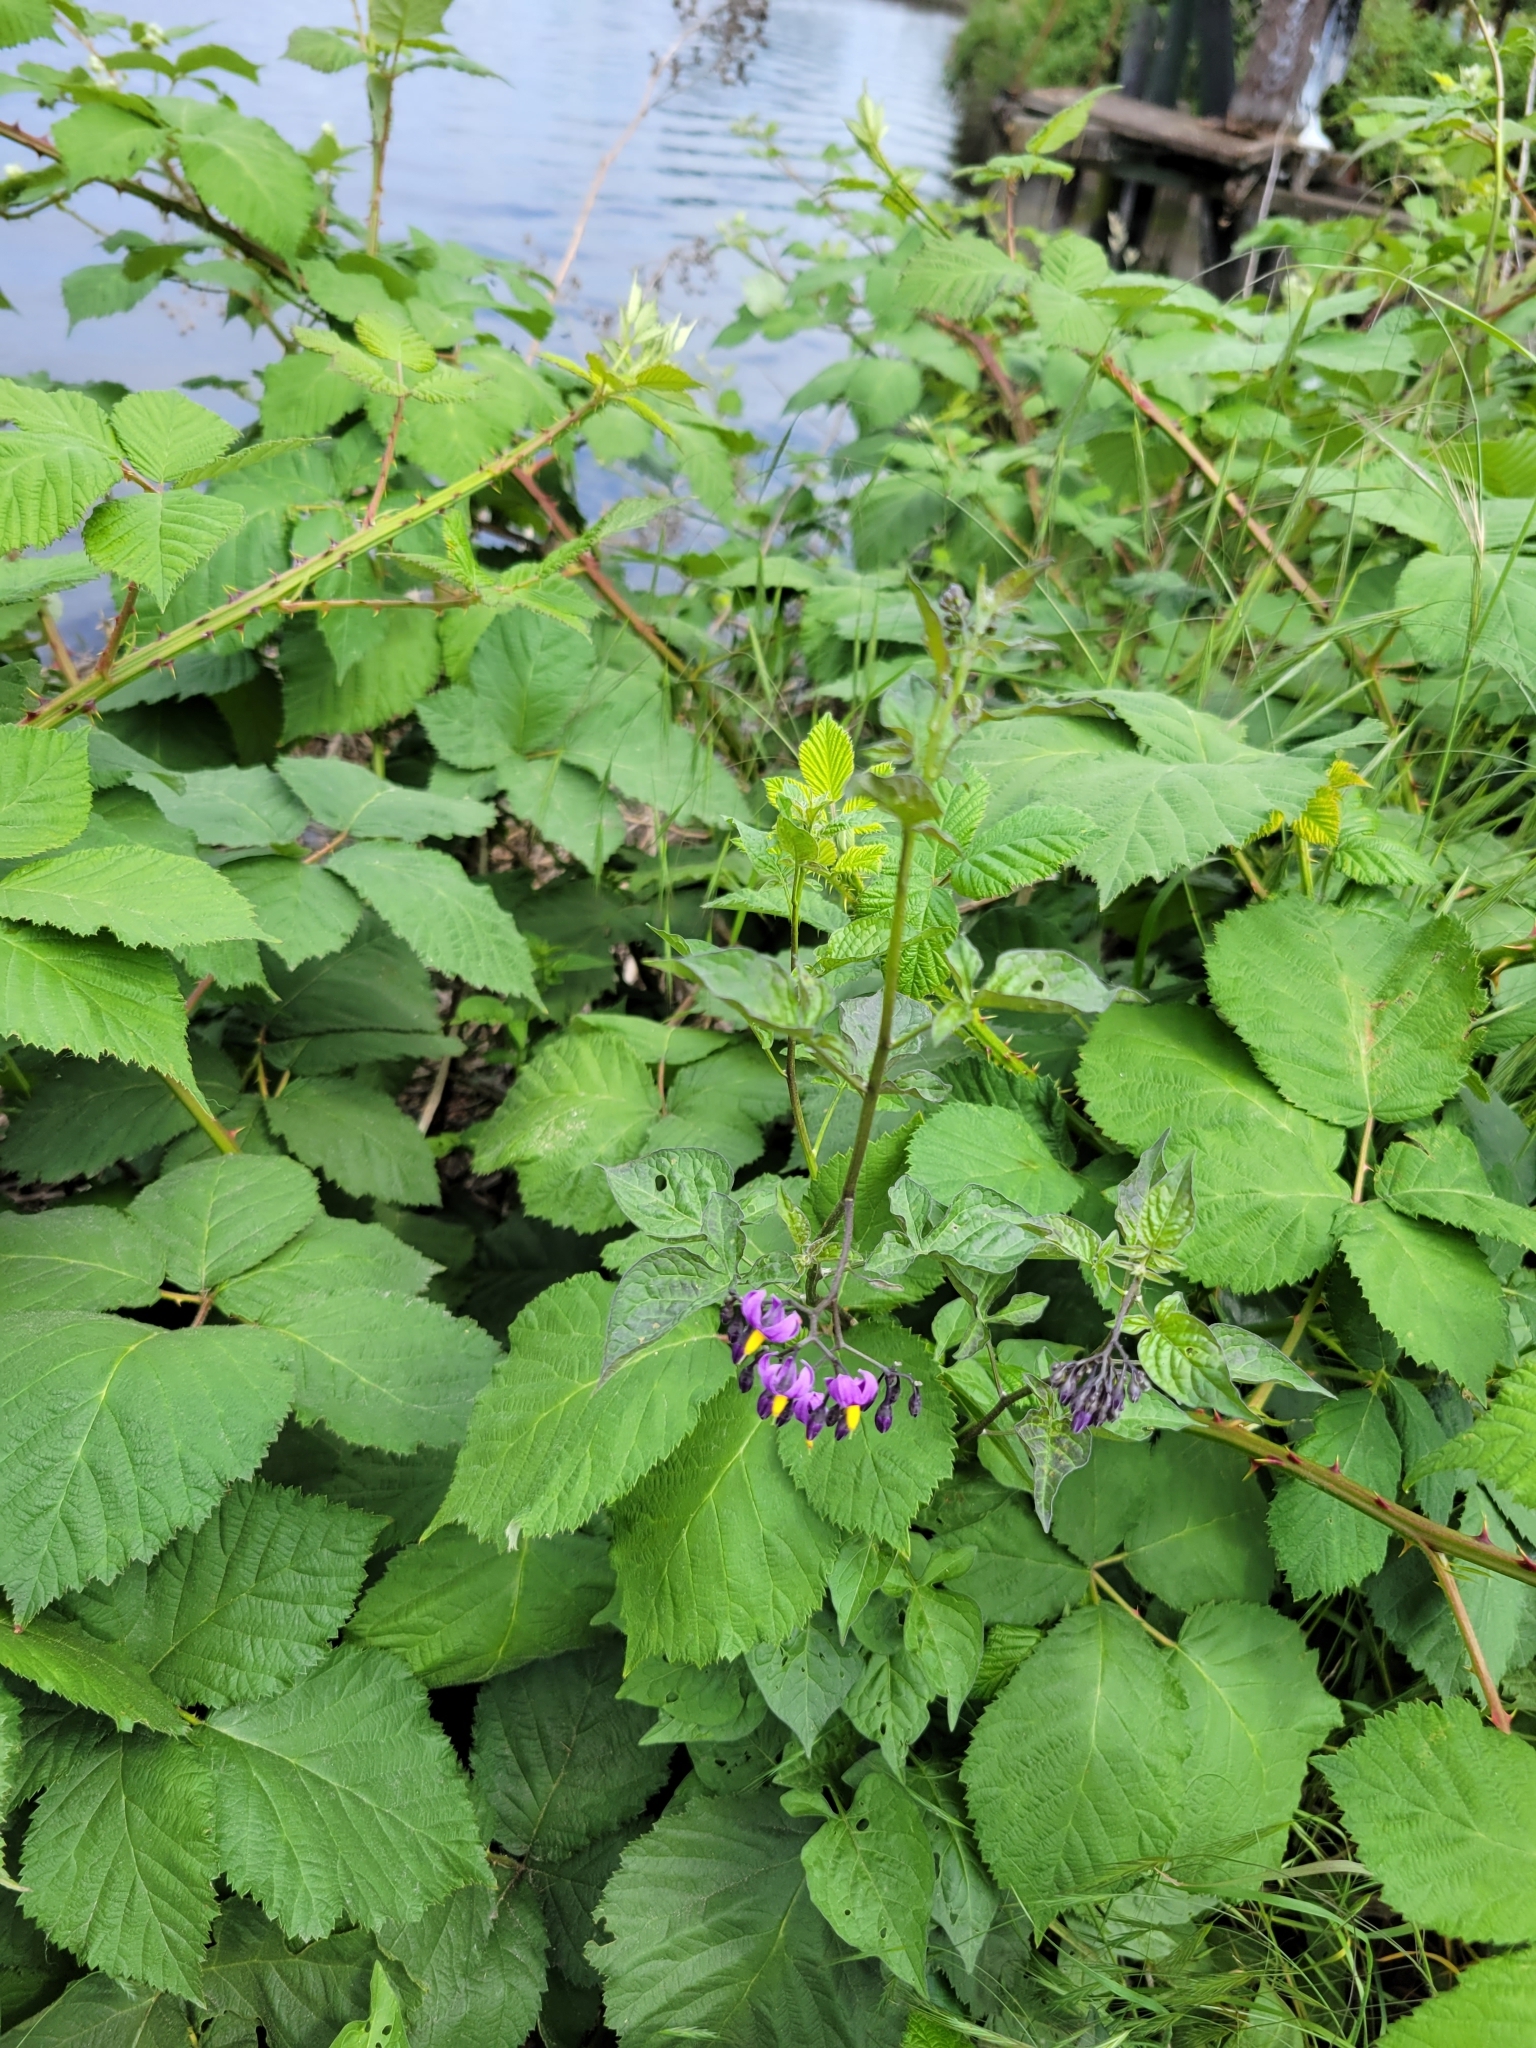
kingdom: Plantae
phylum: Tracheophyta
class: Magnoliopsida
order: Solanales
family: Solanaceae
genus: Solanum
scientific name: Solanum dulcamara
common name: Climbing nightshade
